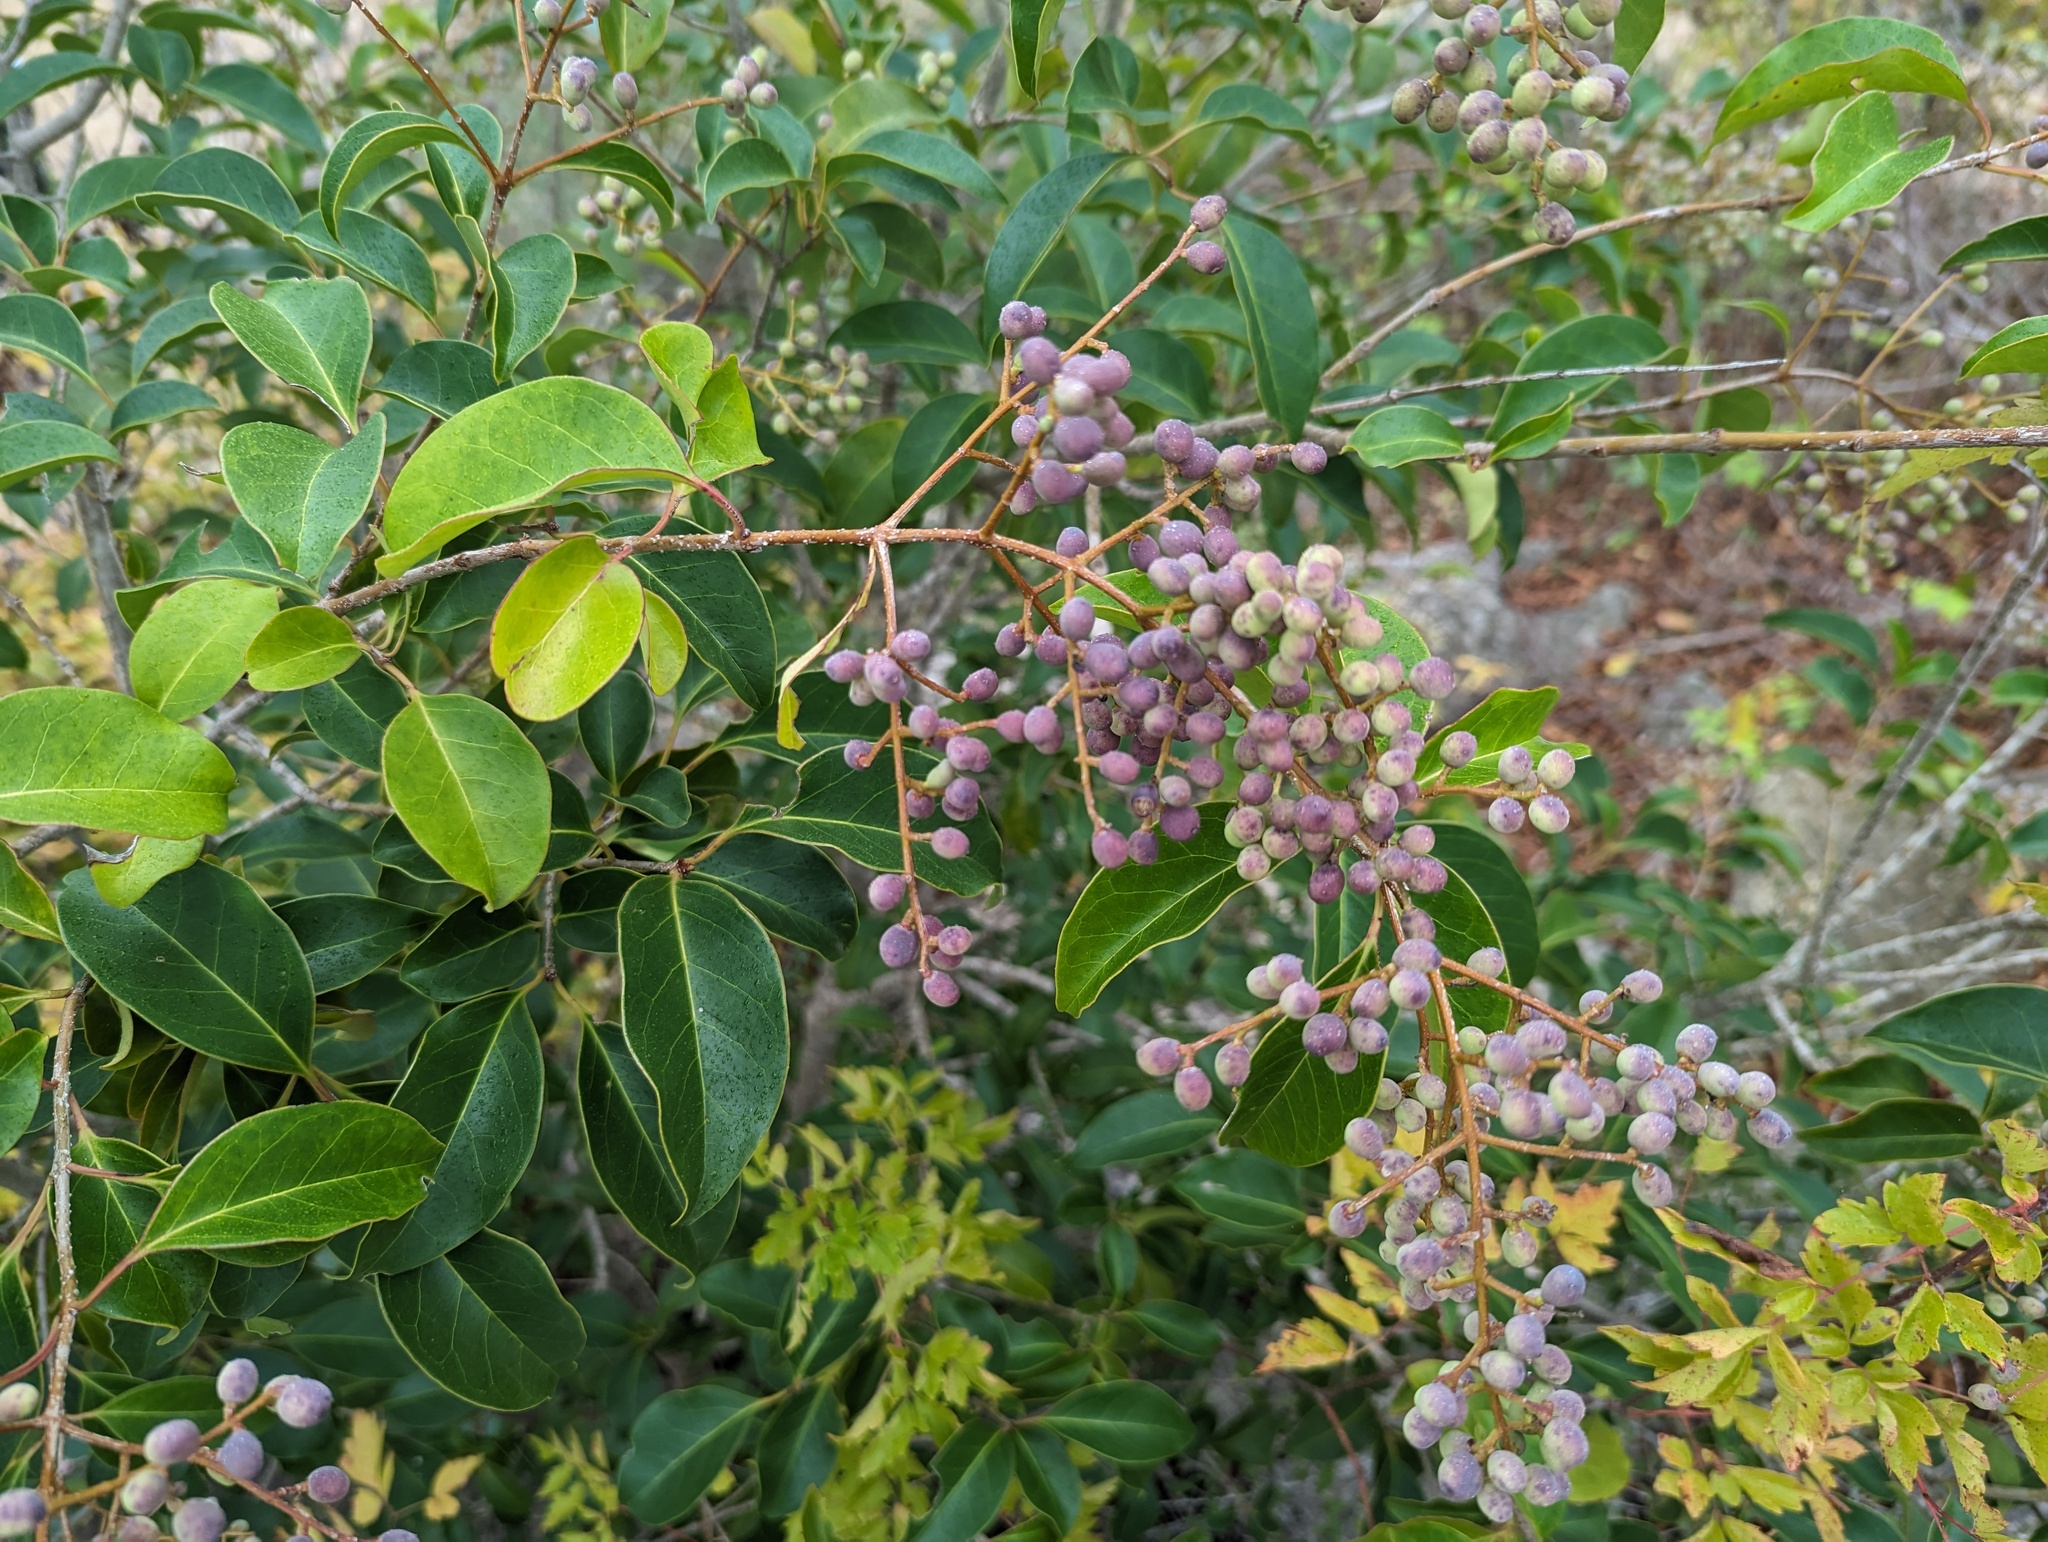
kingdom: Plantae
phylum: Tracheophyta
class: Magnoliopsida
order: Lamiales
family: Oleaceae
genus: Ligustrum
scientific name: Ligustrum lucidum
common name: Glossy privet
